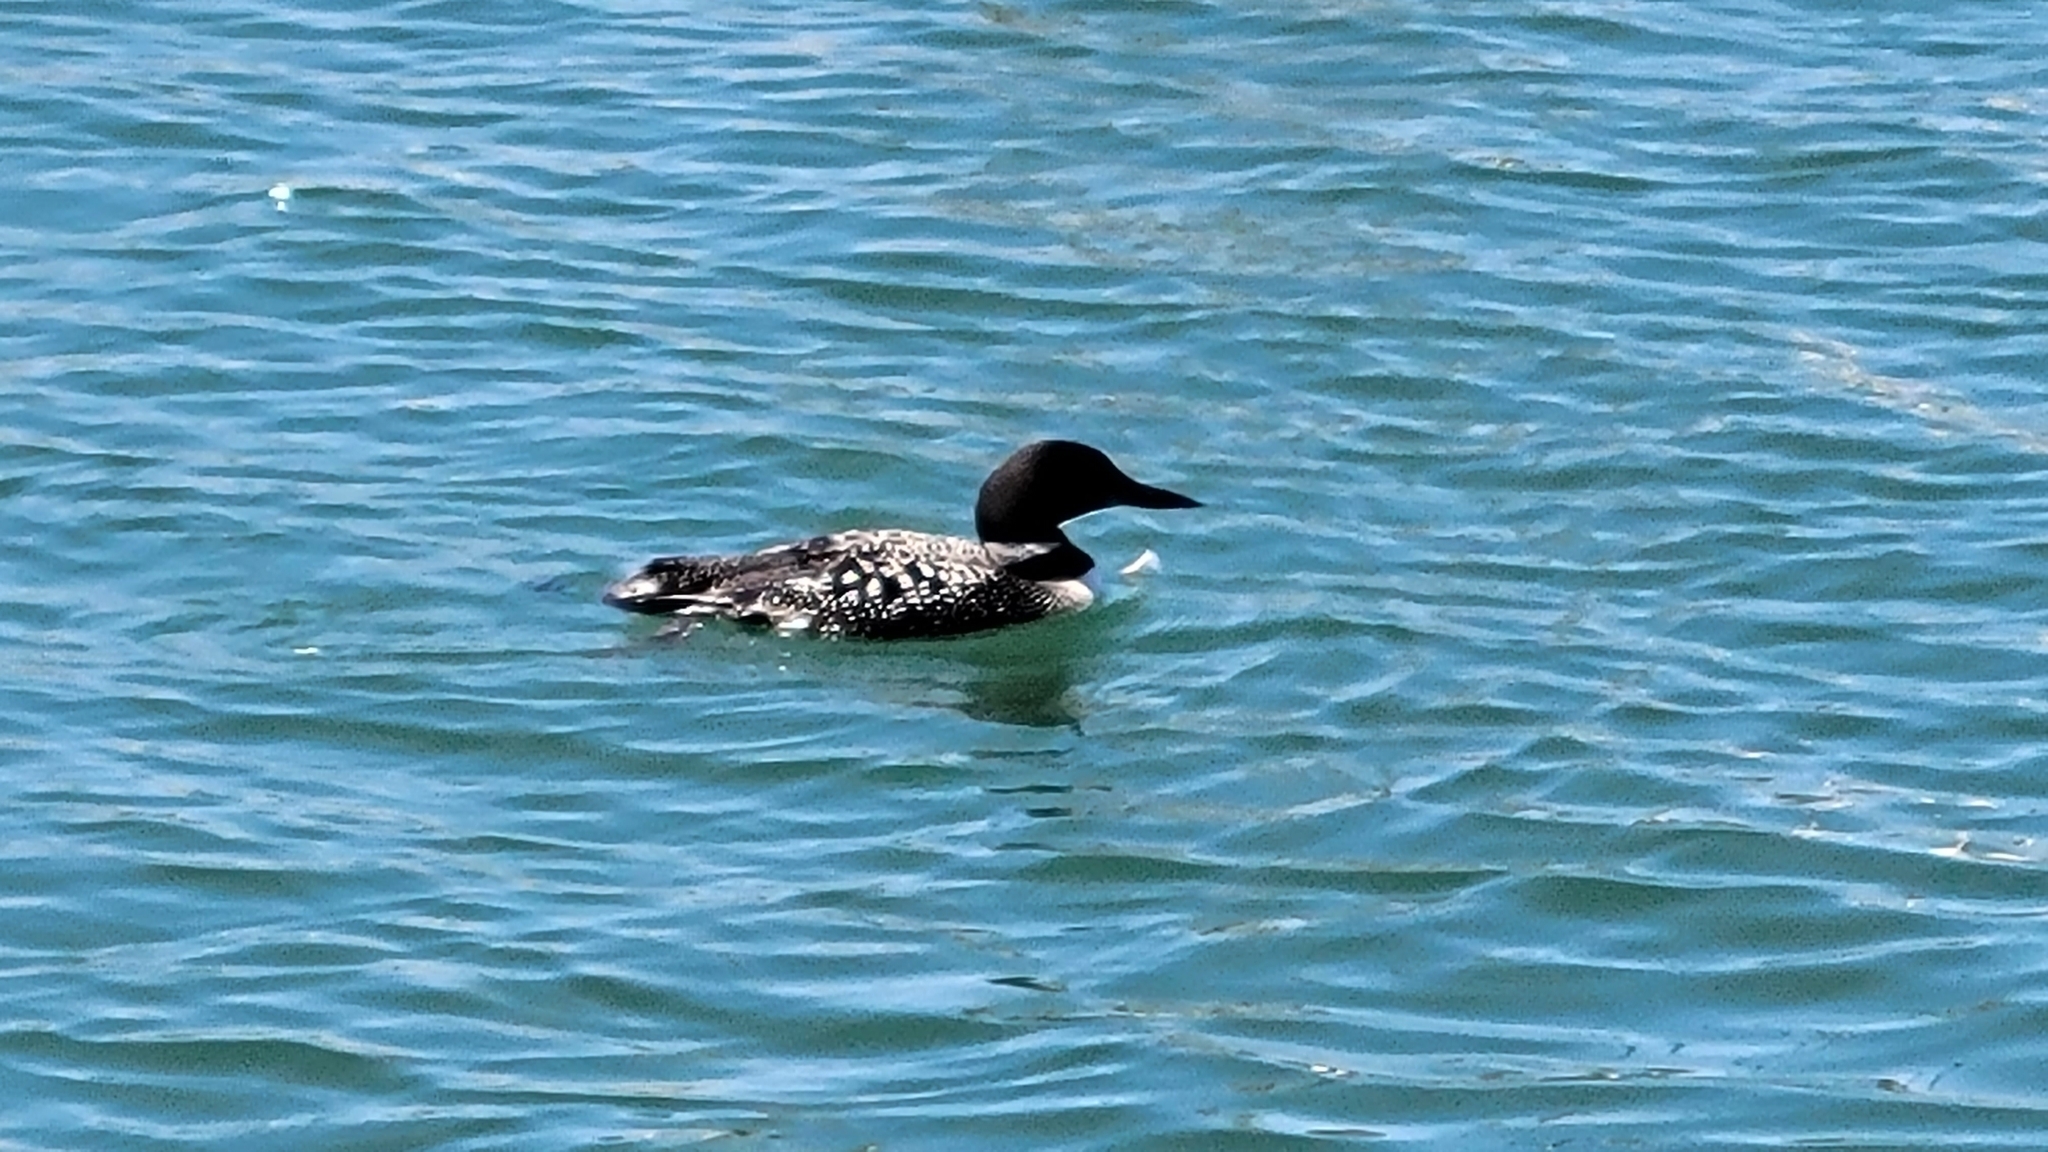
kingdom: Animalia
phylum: Chordata
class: Aves
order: Gaviiformes
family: Gaviidae
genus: Gavia
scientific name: Gavia immer
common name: Common loon
